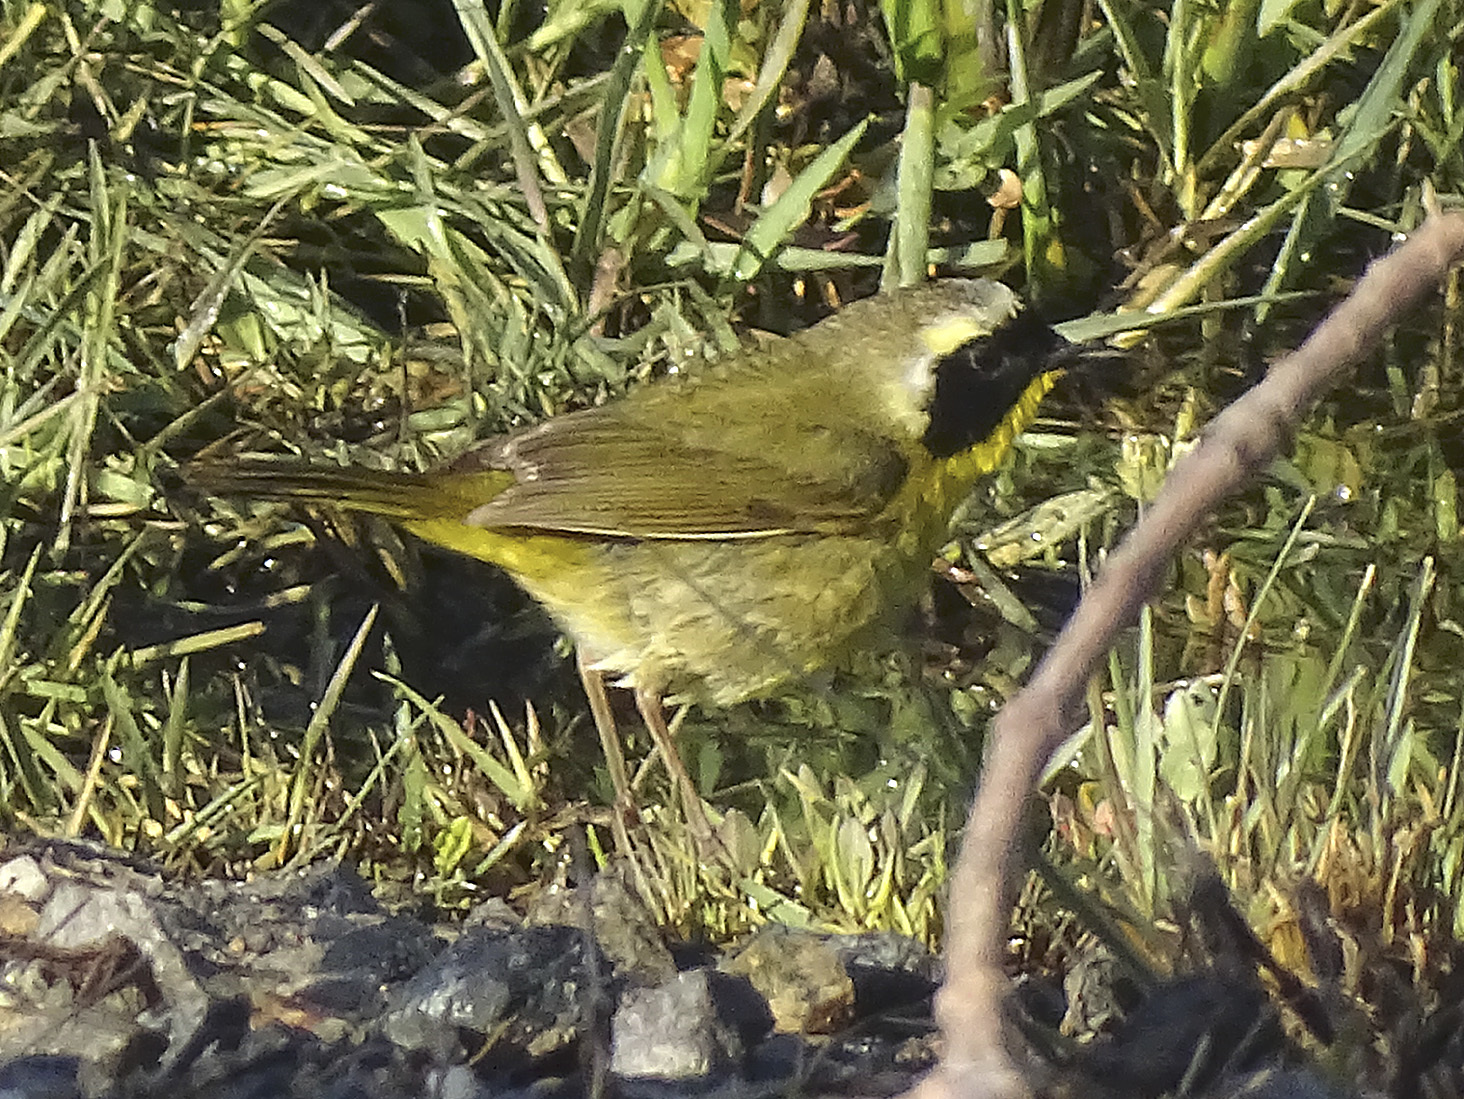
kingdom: Animalia
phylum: Chordata
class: Aves
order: Passeriformes
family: Parulidae
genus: Geothlypis
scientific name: Geothlypis trichas
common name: Common yellowthroat
